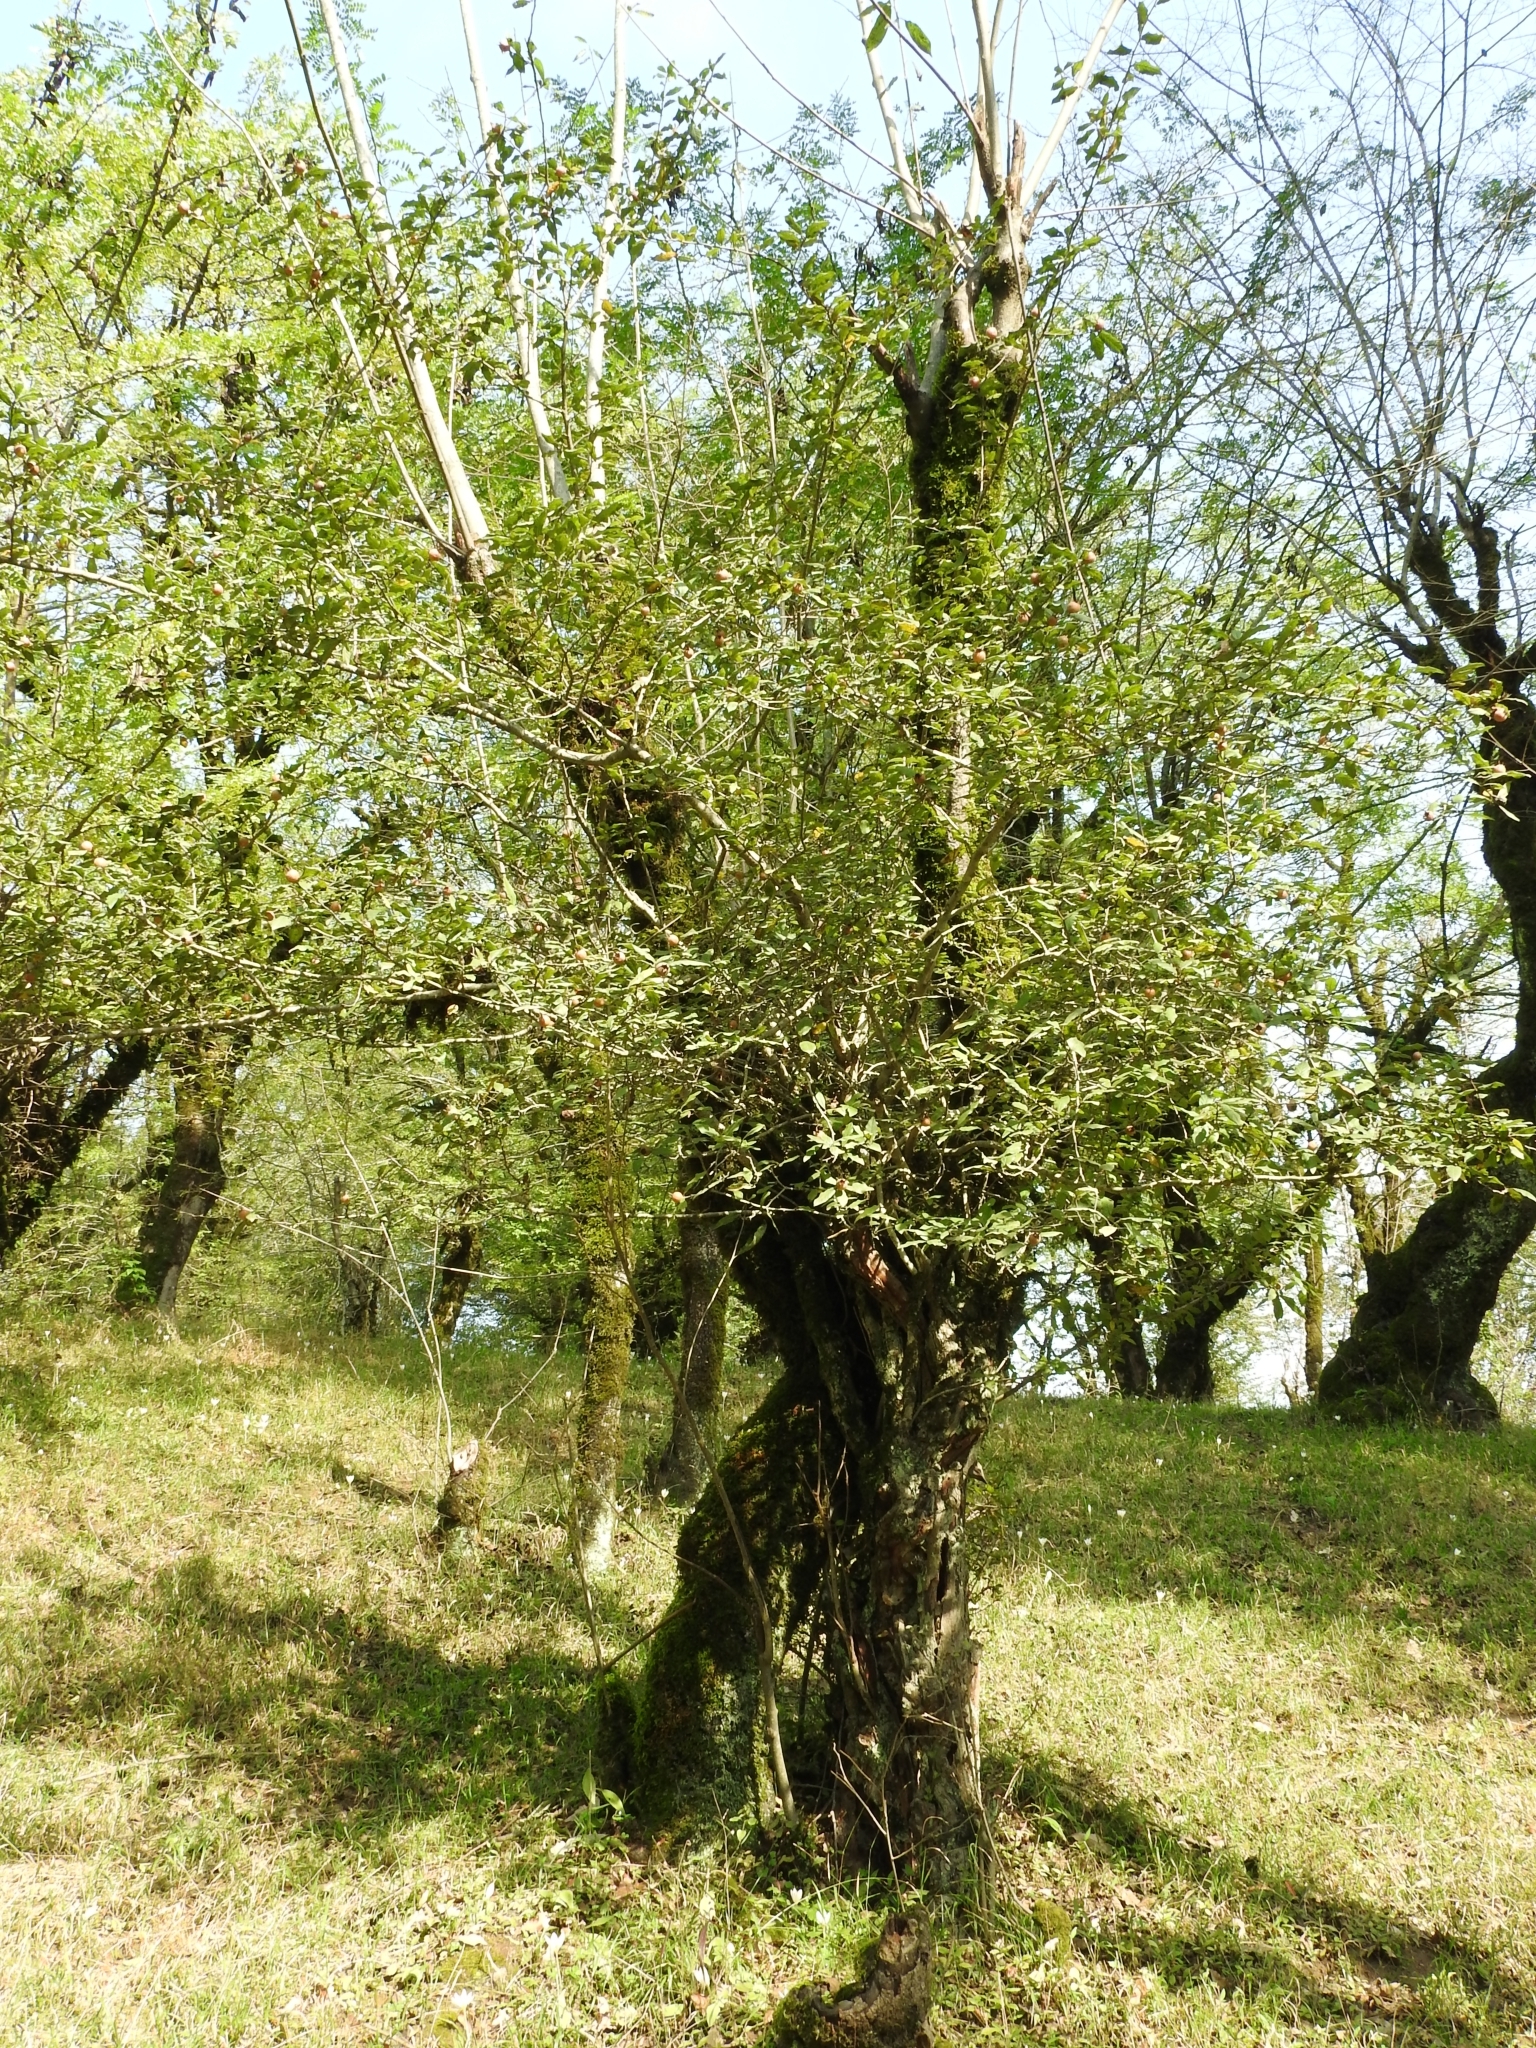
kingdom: Plantae
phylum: Tracheophyta
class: Magnoliopsida
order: Rosales
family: Rosaceae
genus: Mespilus
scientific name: Mespilus germanica
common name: Medlar
